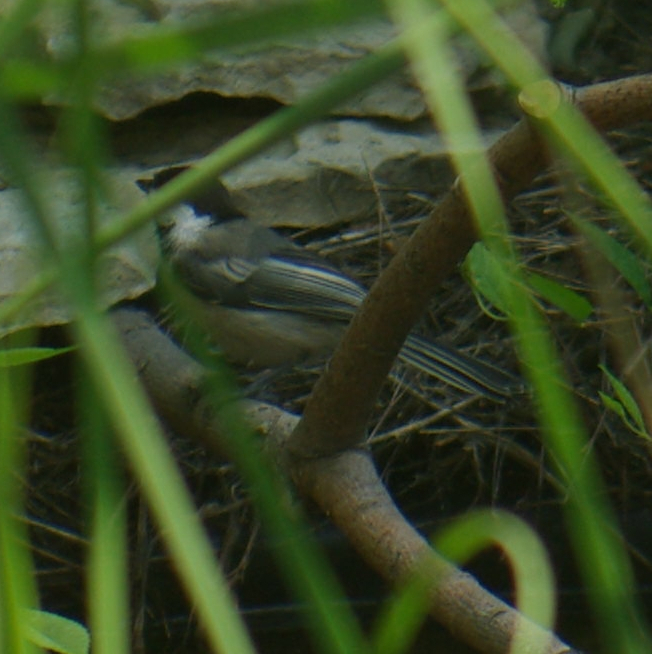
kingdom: Animalia
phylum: Chordata
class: Aves
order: Passeriformes
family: Paridae
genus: Poecile
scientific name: Poecile atricapillus
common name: Black-capped chickadee
